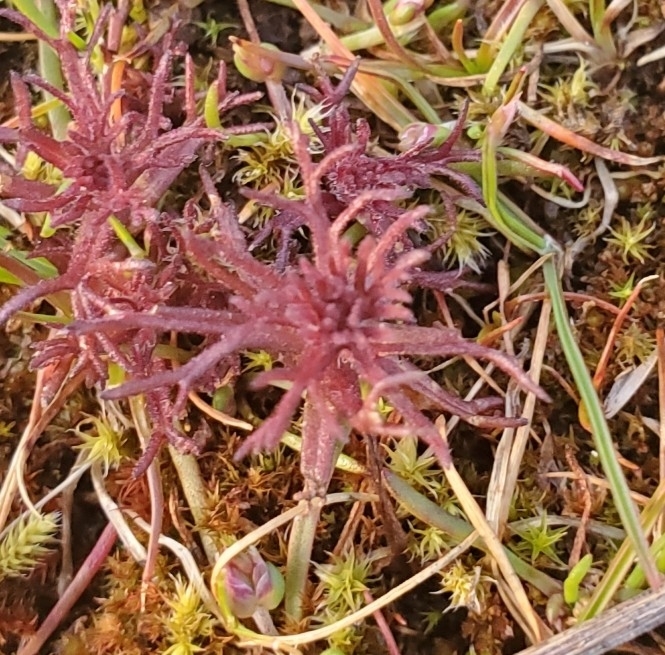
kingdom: Plantae
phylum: Tracheophyta
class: Magnoliopsida
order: Lamiales
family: Orobanchaceae
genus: Triphysaria
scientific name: Triphysaria pusilla
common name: Dwarf false owl-clover
